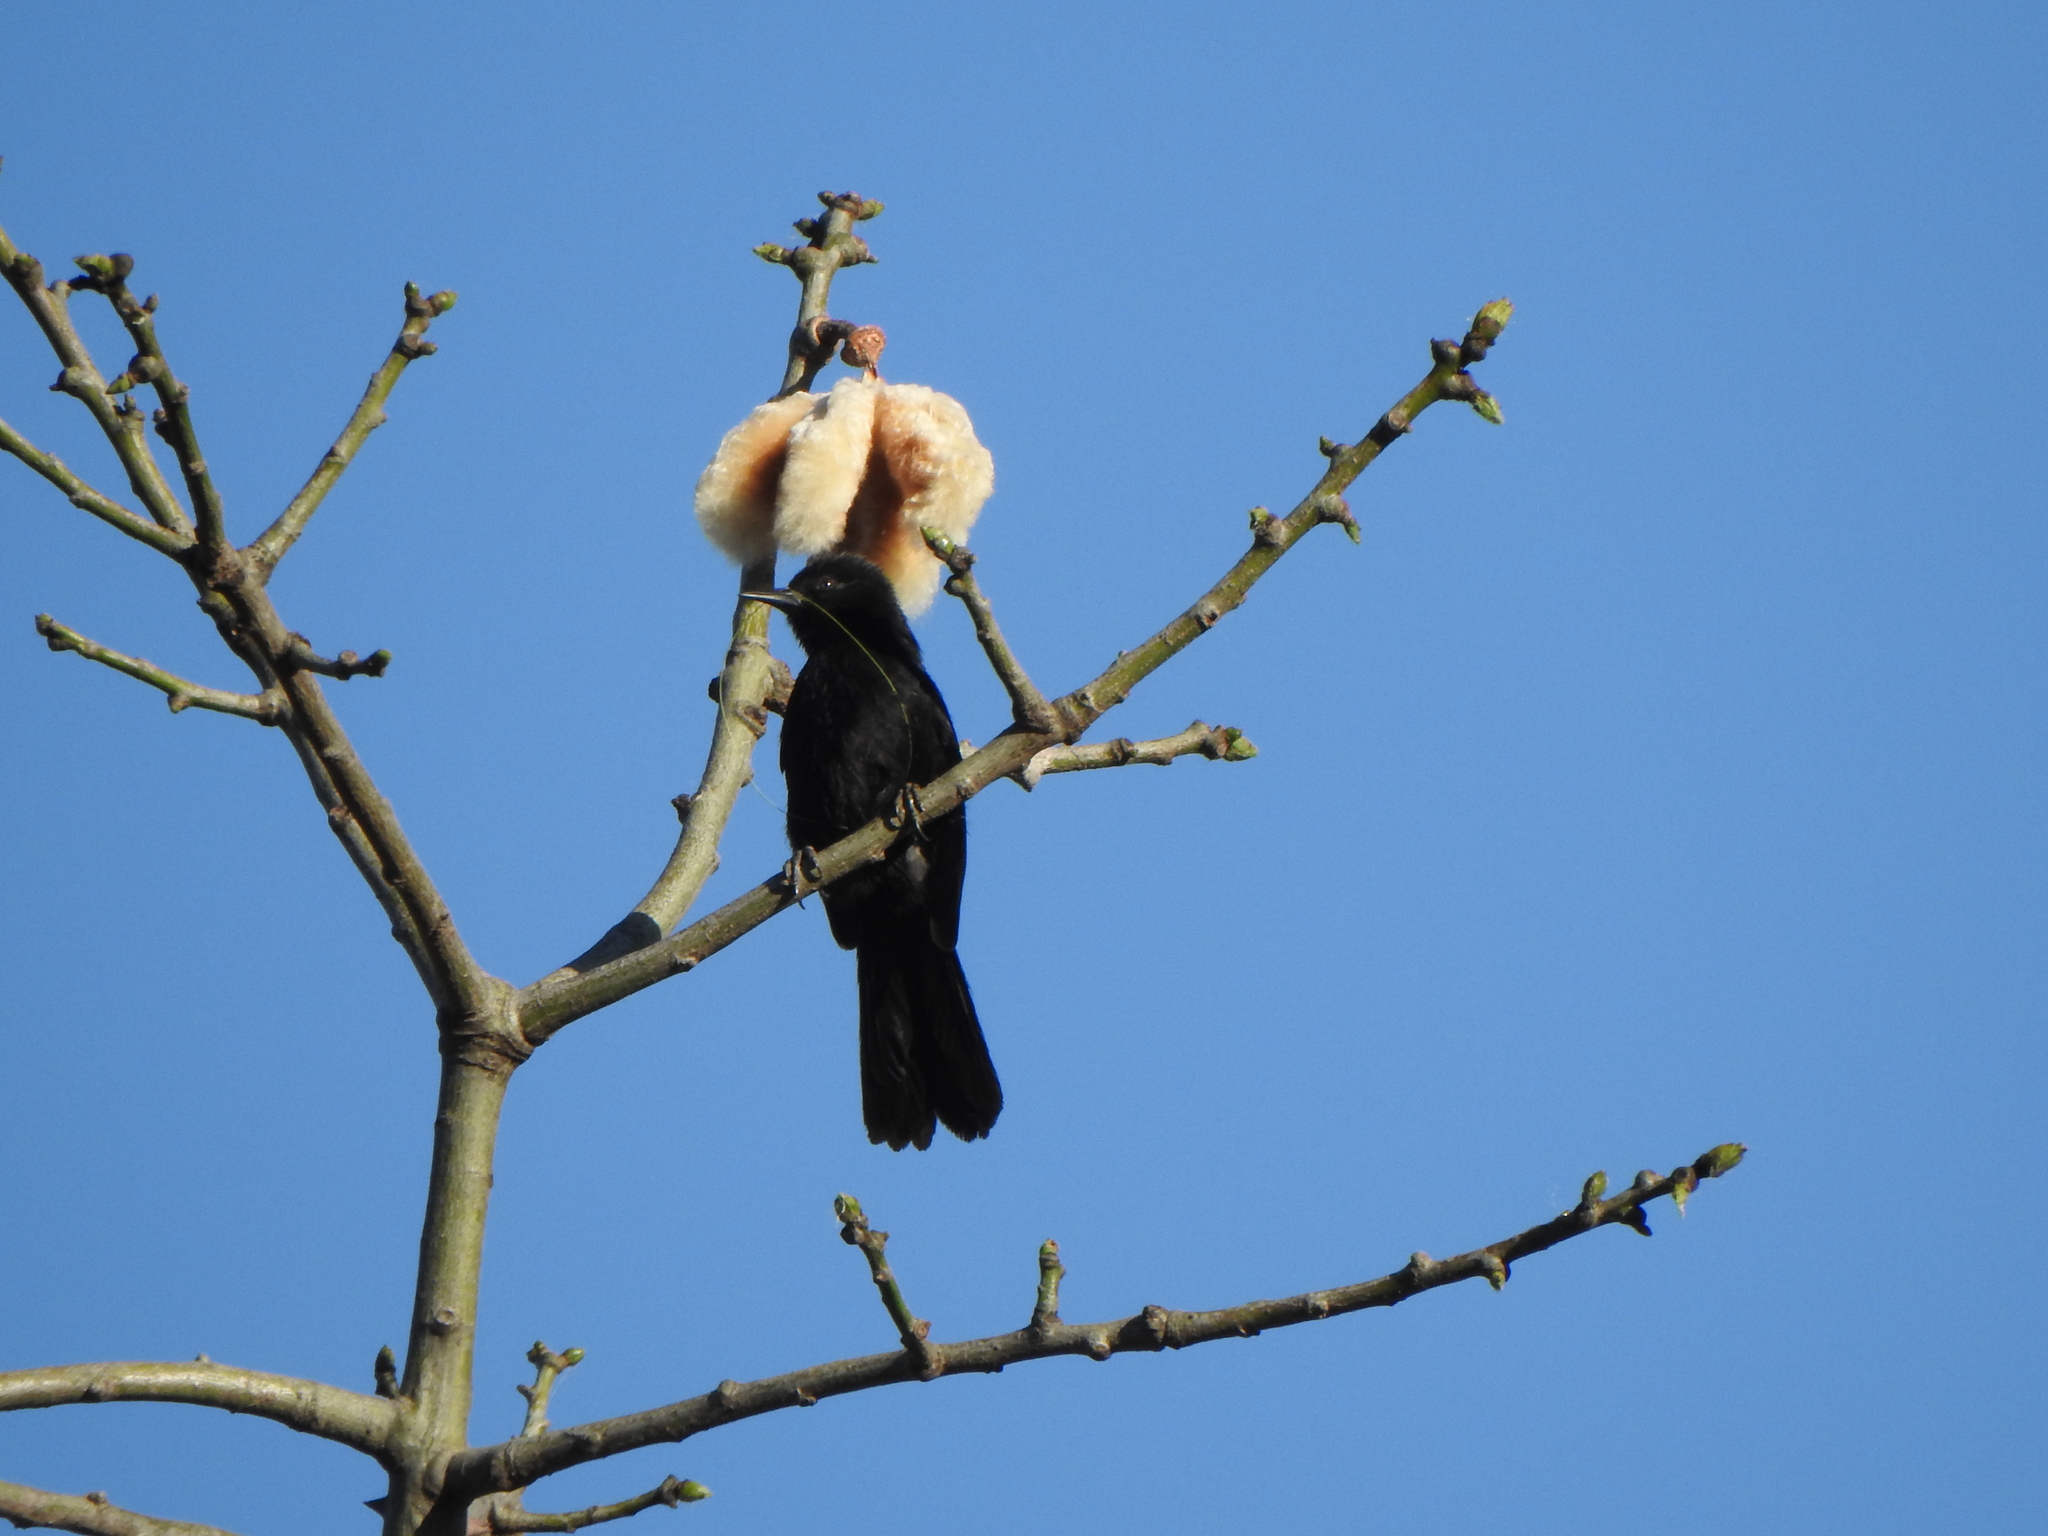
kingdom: Animalia
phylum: Chordata
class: Aves
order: Passeriformes
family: Icteridae
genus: Icterus
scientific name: Icterus cayanensis
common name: Epaulet oriole
